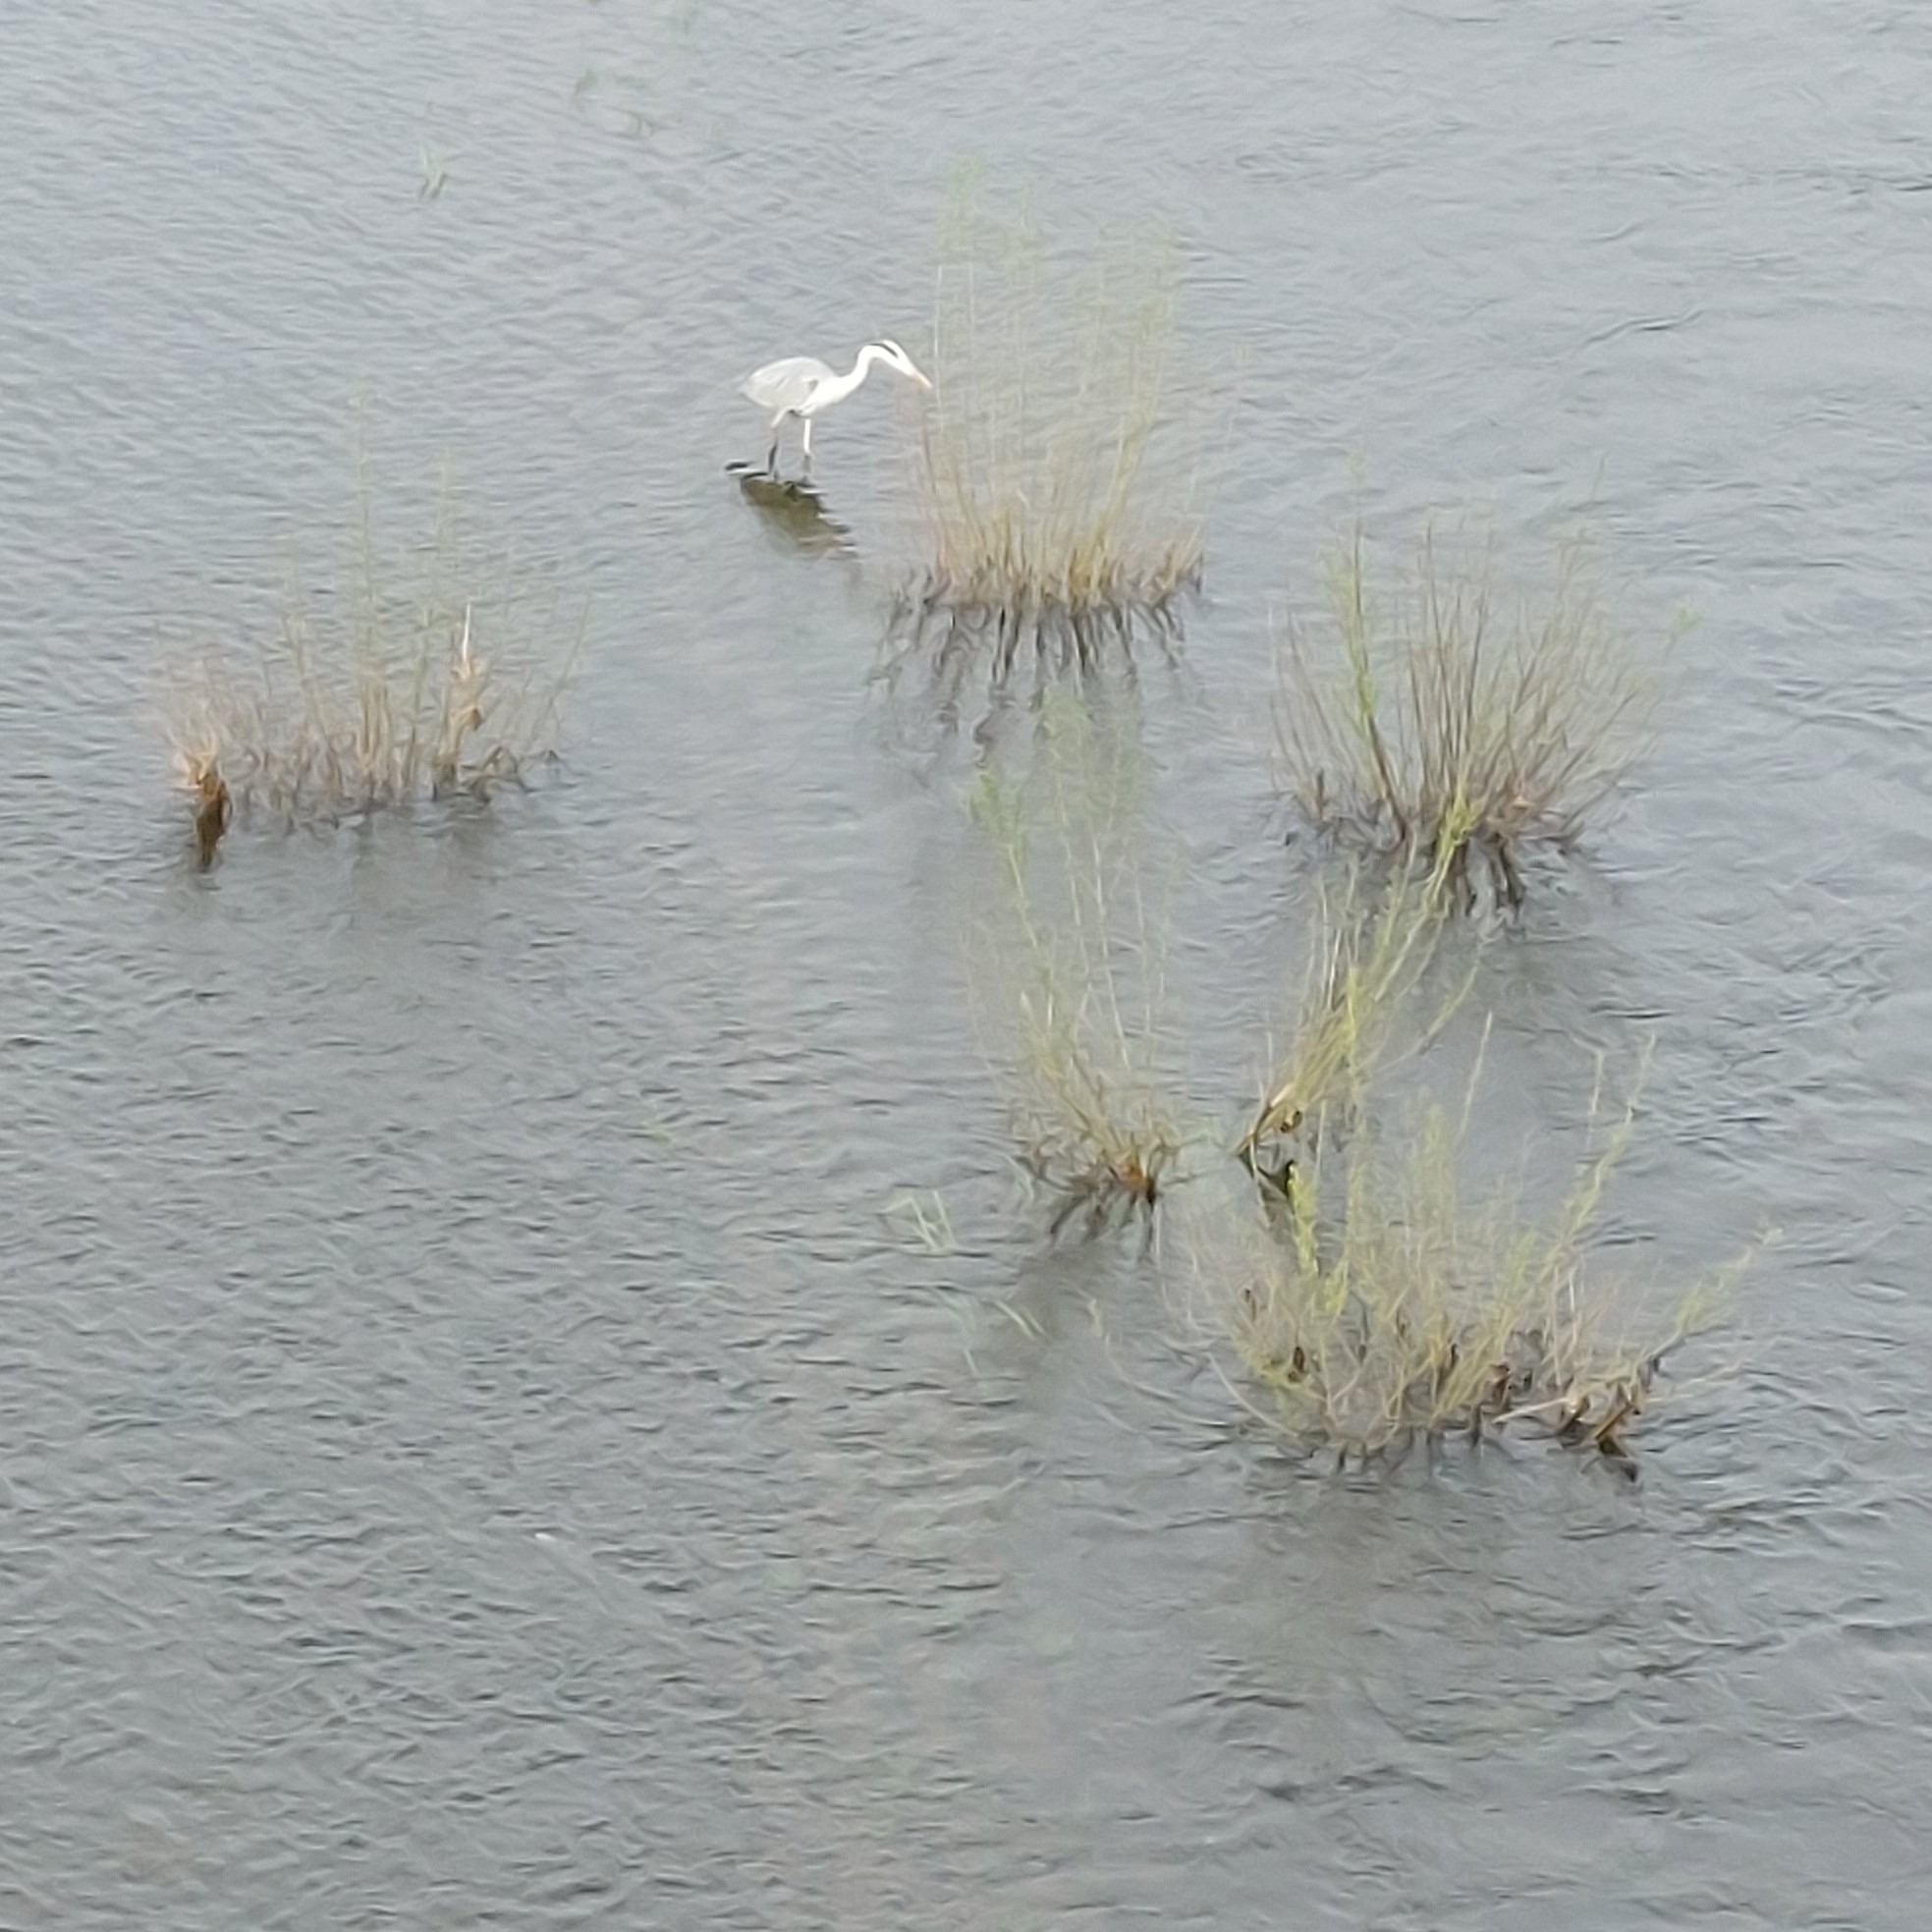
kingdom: Animalia
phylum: Chordata
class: Aves
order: Pelecaniformes
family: Ardeidae
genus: Ardea
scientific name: Ardea cinerea
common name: Grey heron
